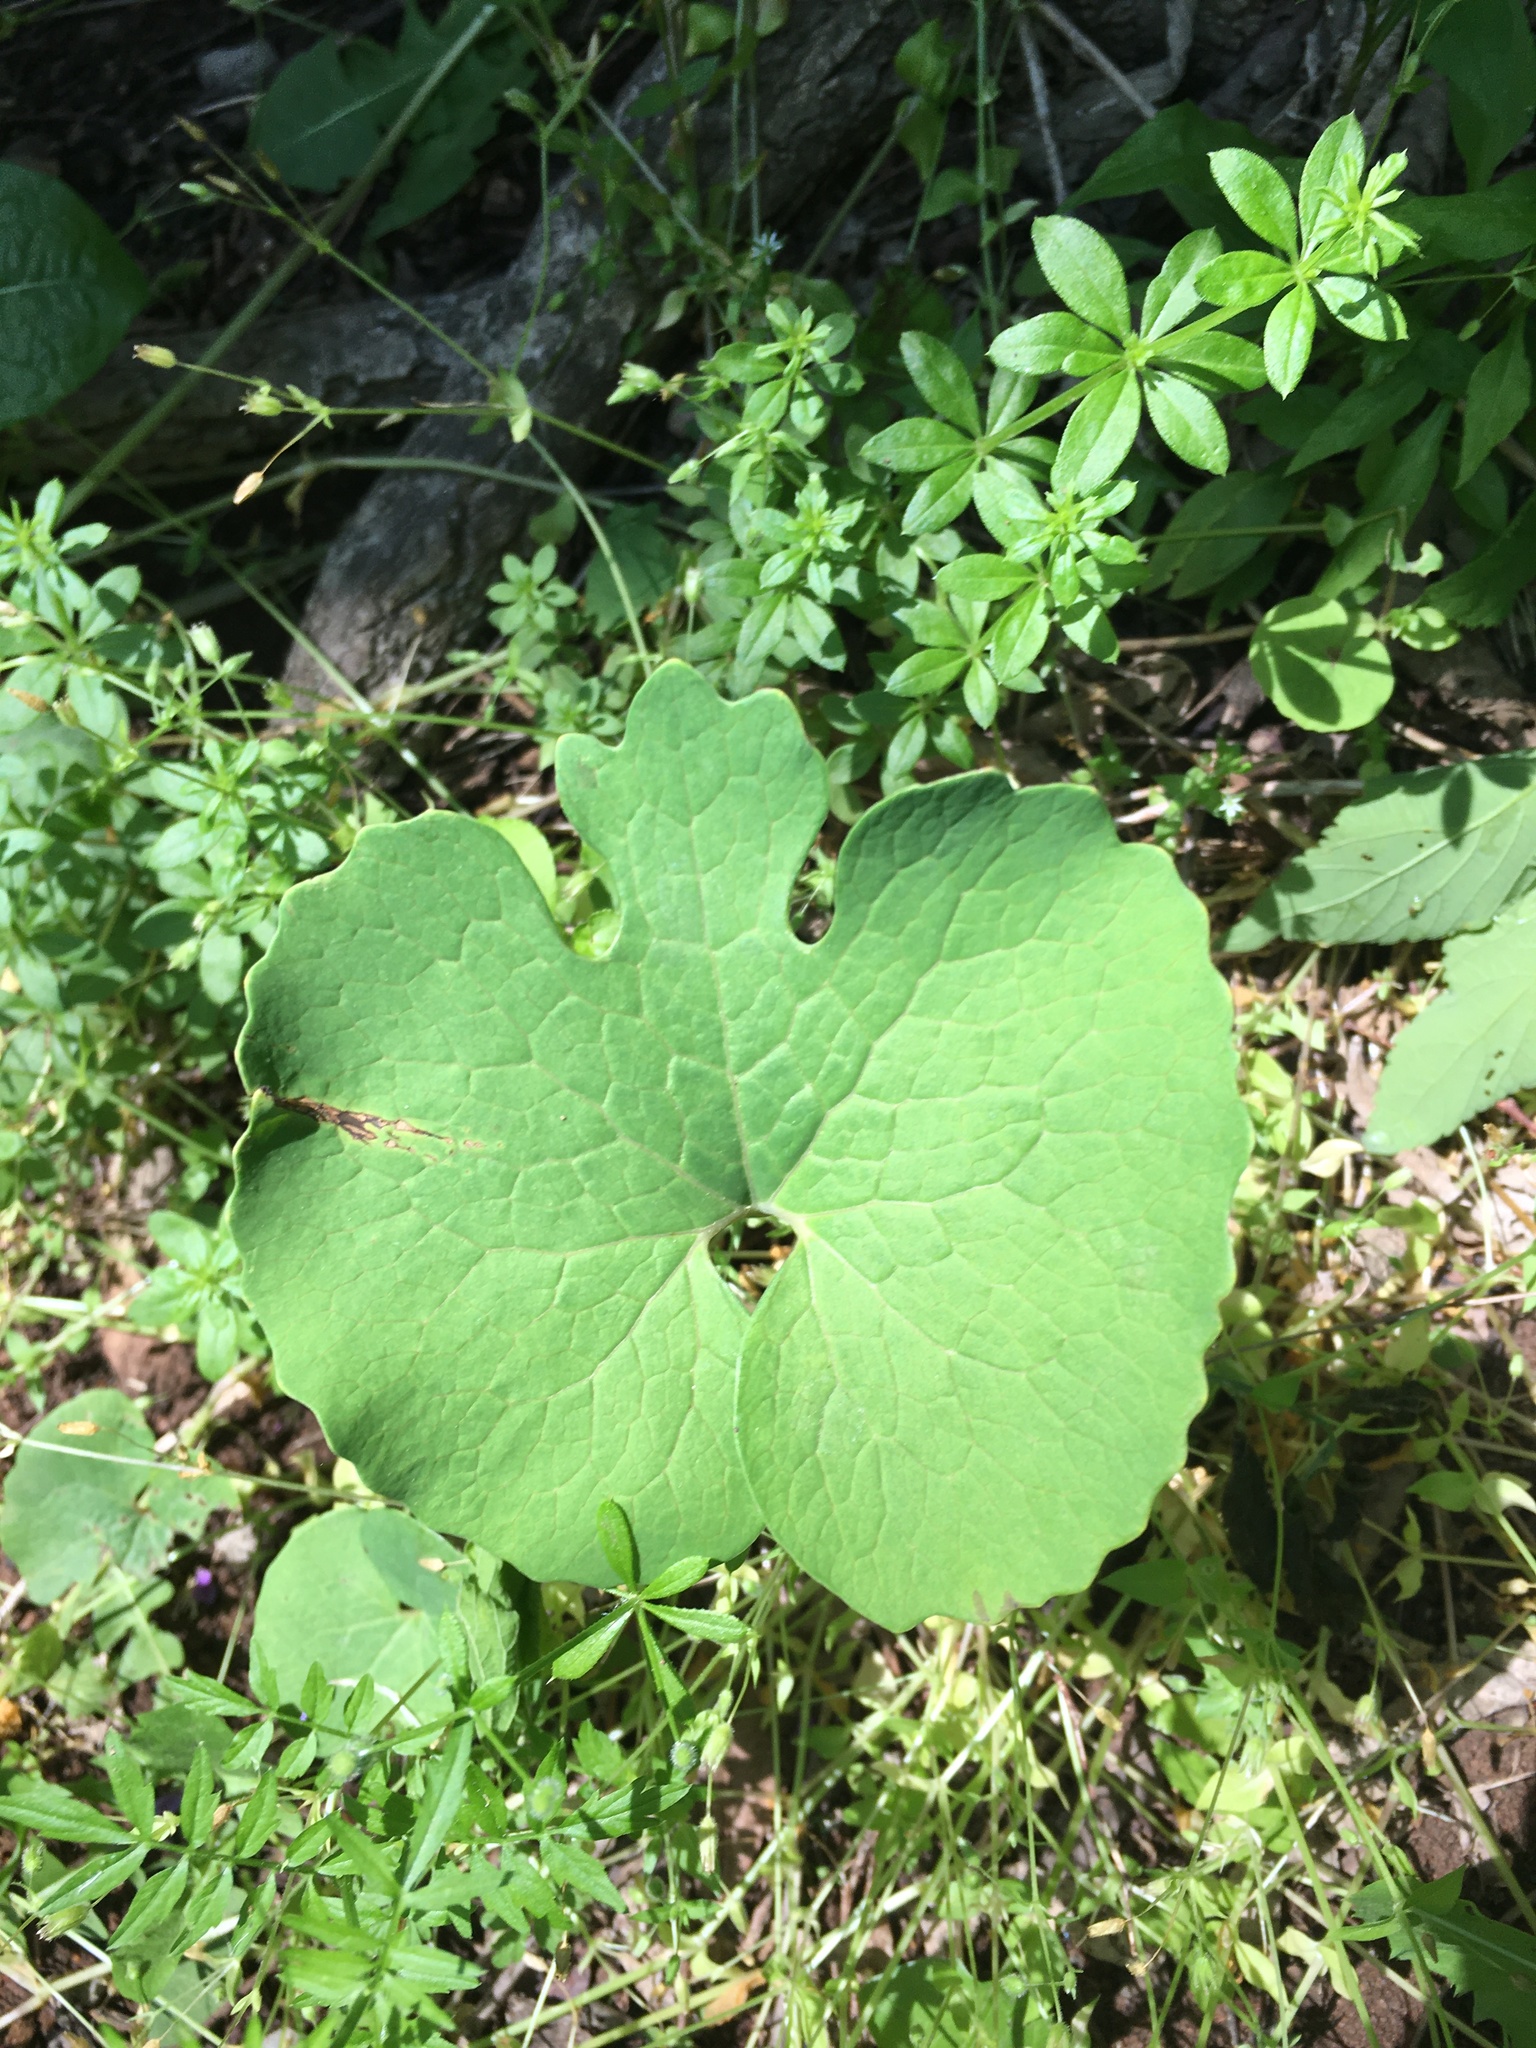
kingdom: Plantae
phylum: Tracheophyta
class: Magnoliopsida
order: Ranunculales
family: Papaveraceae
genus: Sanguinaria
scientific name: Sanguinaria canadensis
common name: Bloodroot
